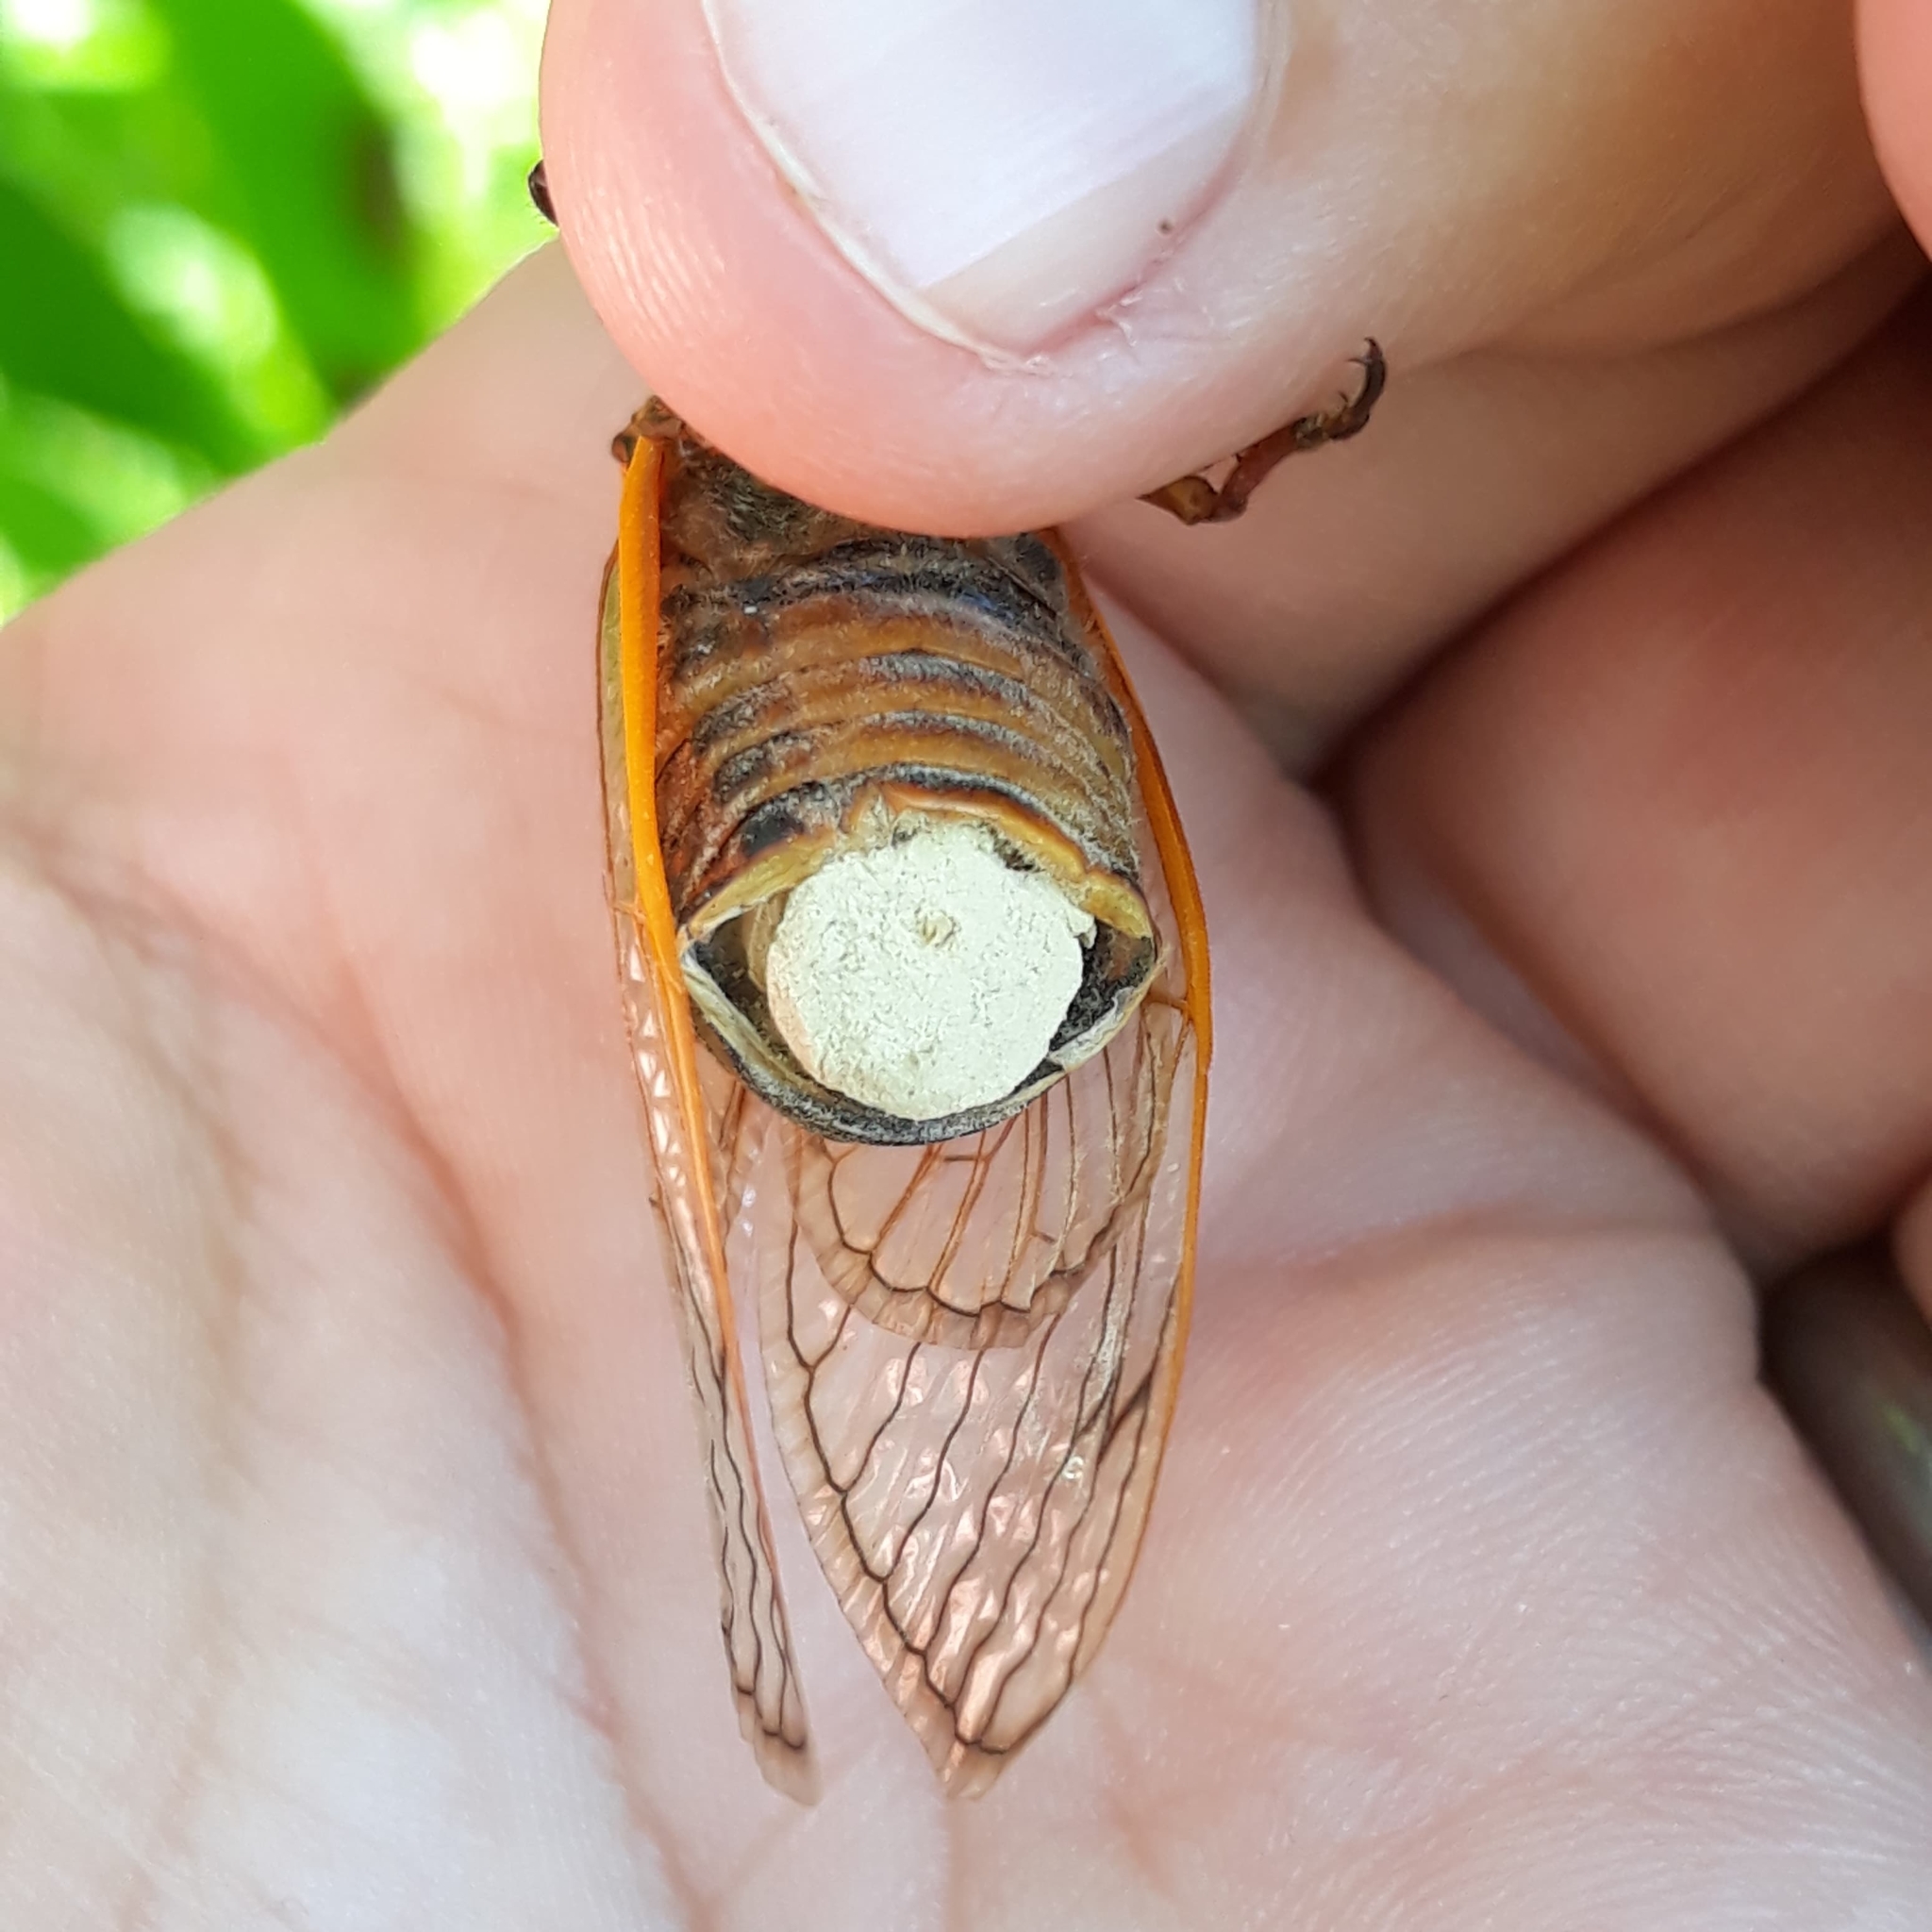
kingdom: Animalia
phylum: Arthropoda
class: Insecta
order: Hemiptera
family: Cicadidae
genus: Magicicada
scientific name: Magicicada septendecim
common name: Periodical cicada
